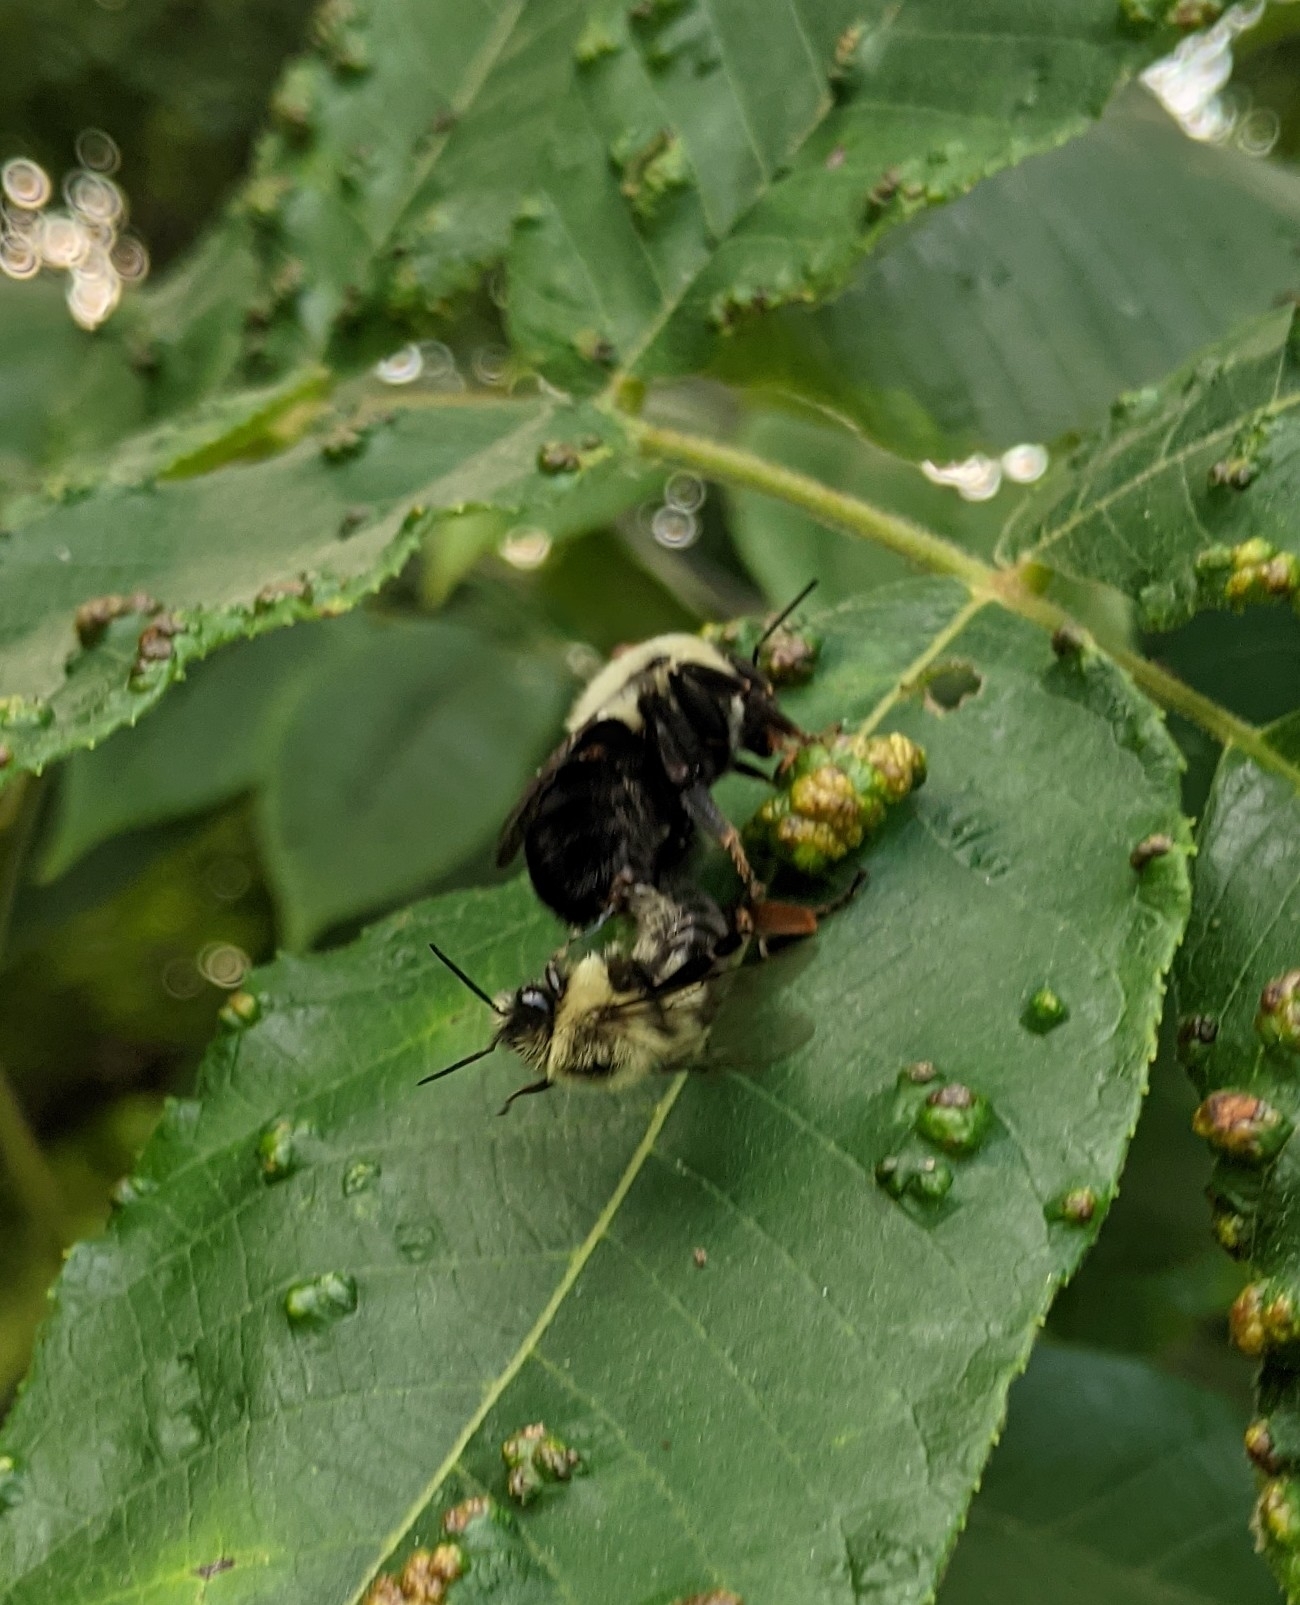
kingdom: Animalia
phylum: Arthropoda
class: Insecta
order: Hymenoptera
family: Apidae
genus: Bombus
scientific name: Bombus impatiens
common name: Common eastern bumble bee
